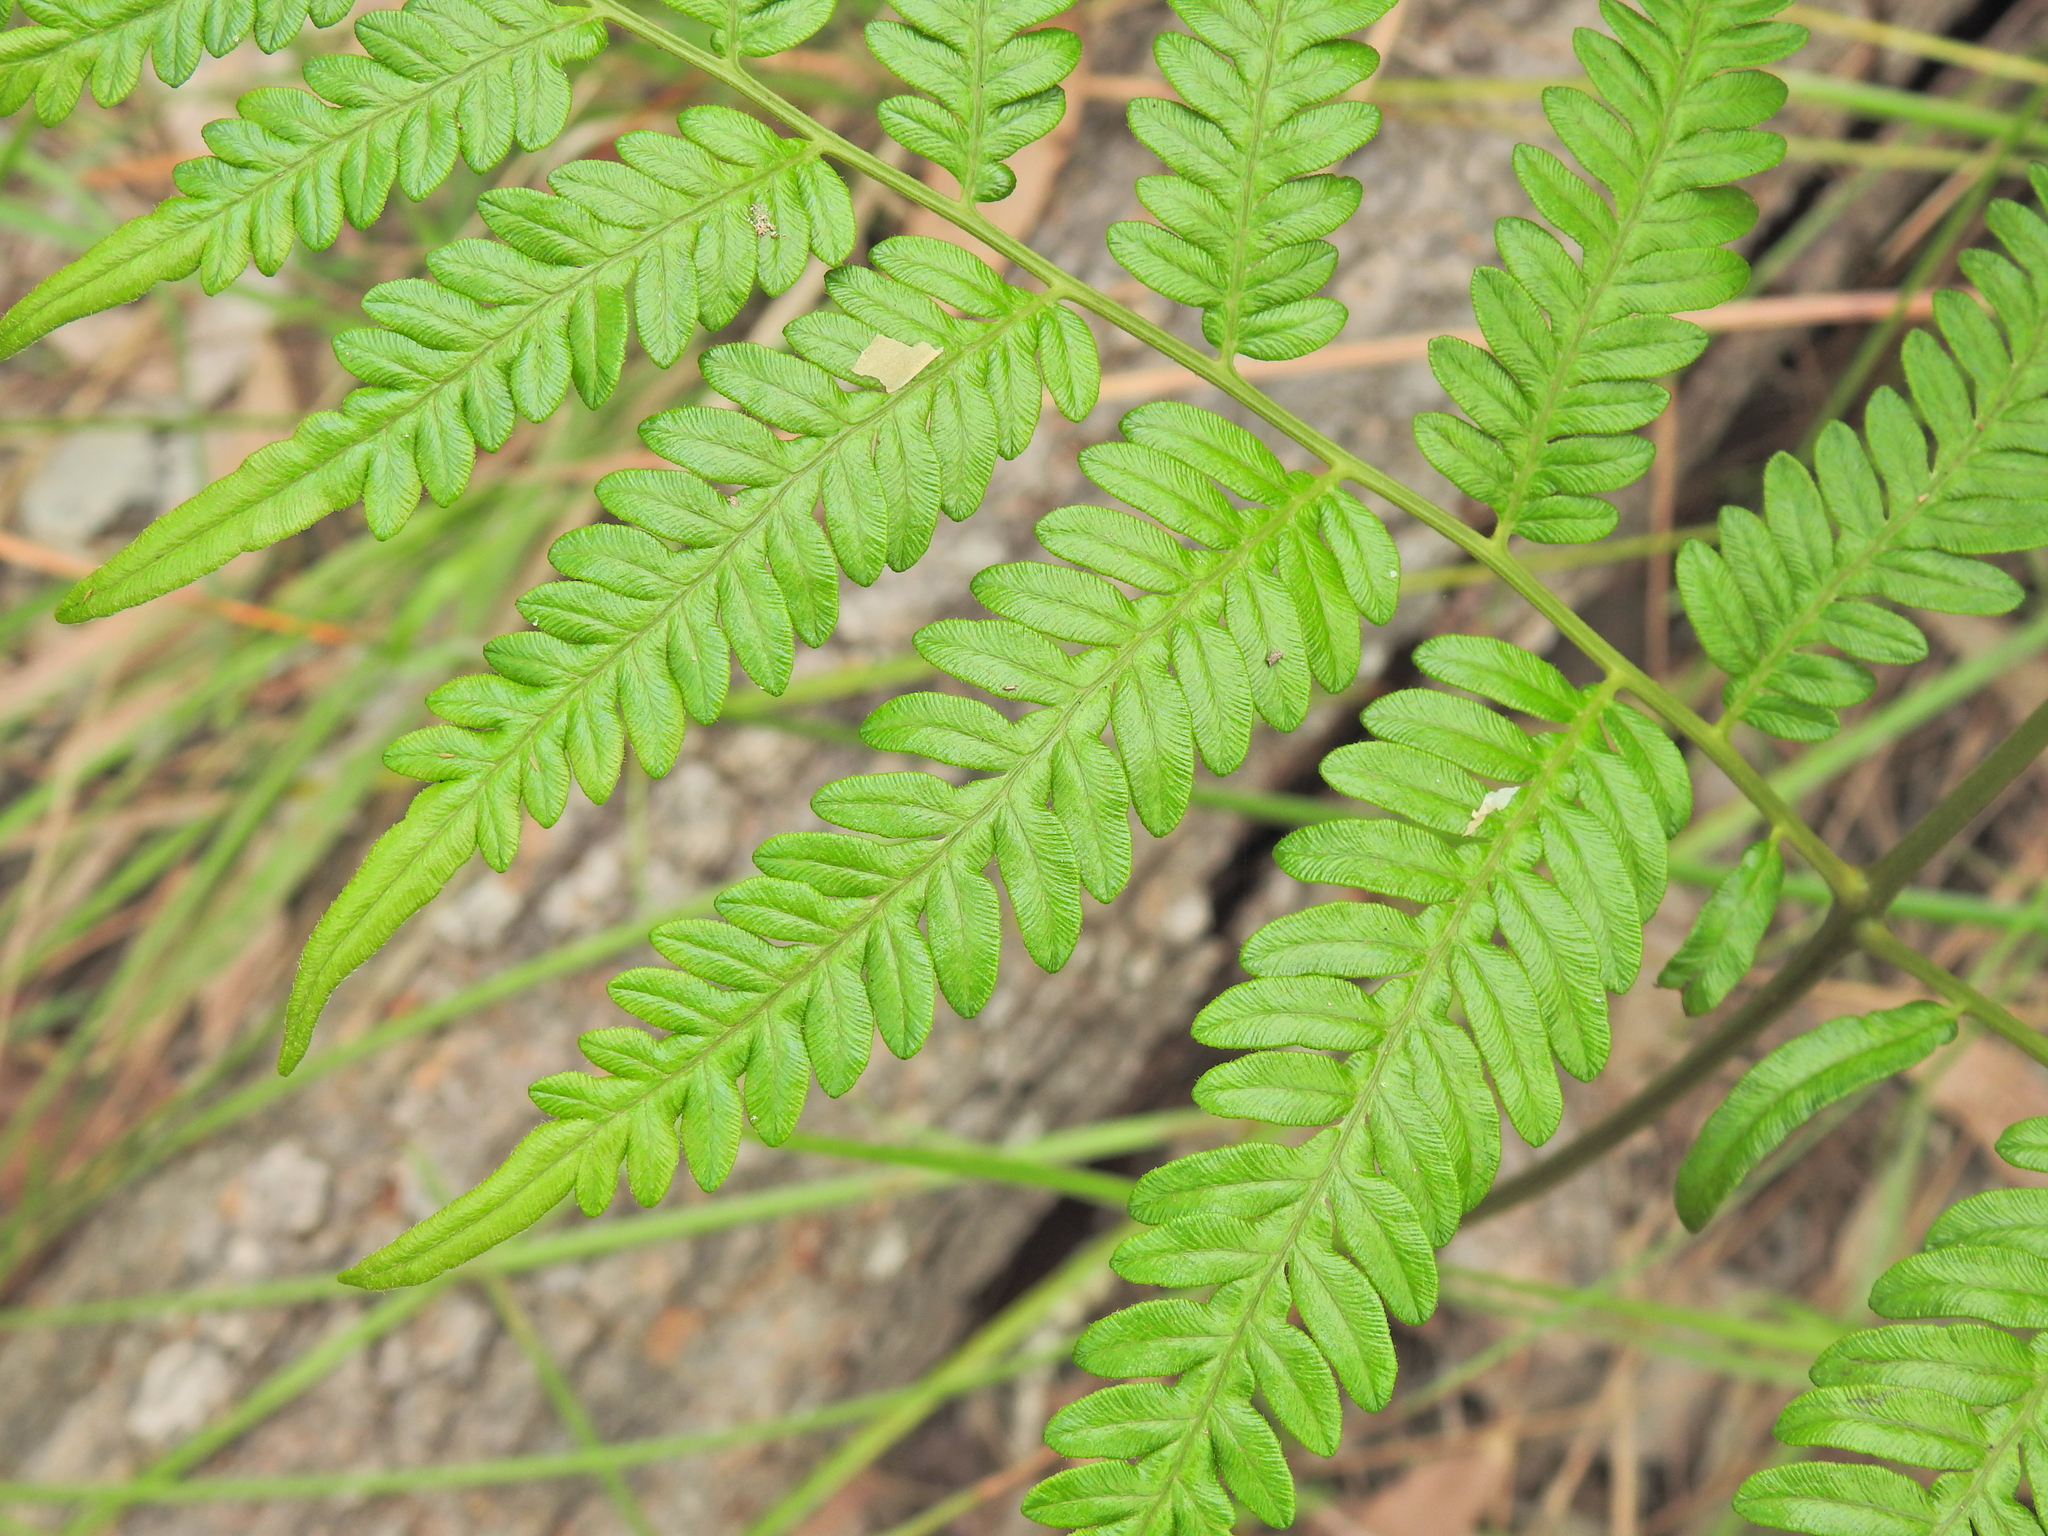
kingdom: Plantae
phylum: Tracheophyta
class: Polypodiopsida
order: Polypodiales
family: Dennstaedtiaceae
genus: Pteridium
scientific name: Pteridium esculentum
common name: Bracken fern
